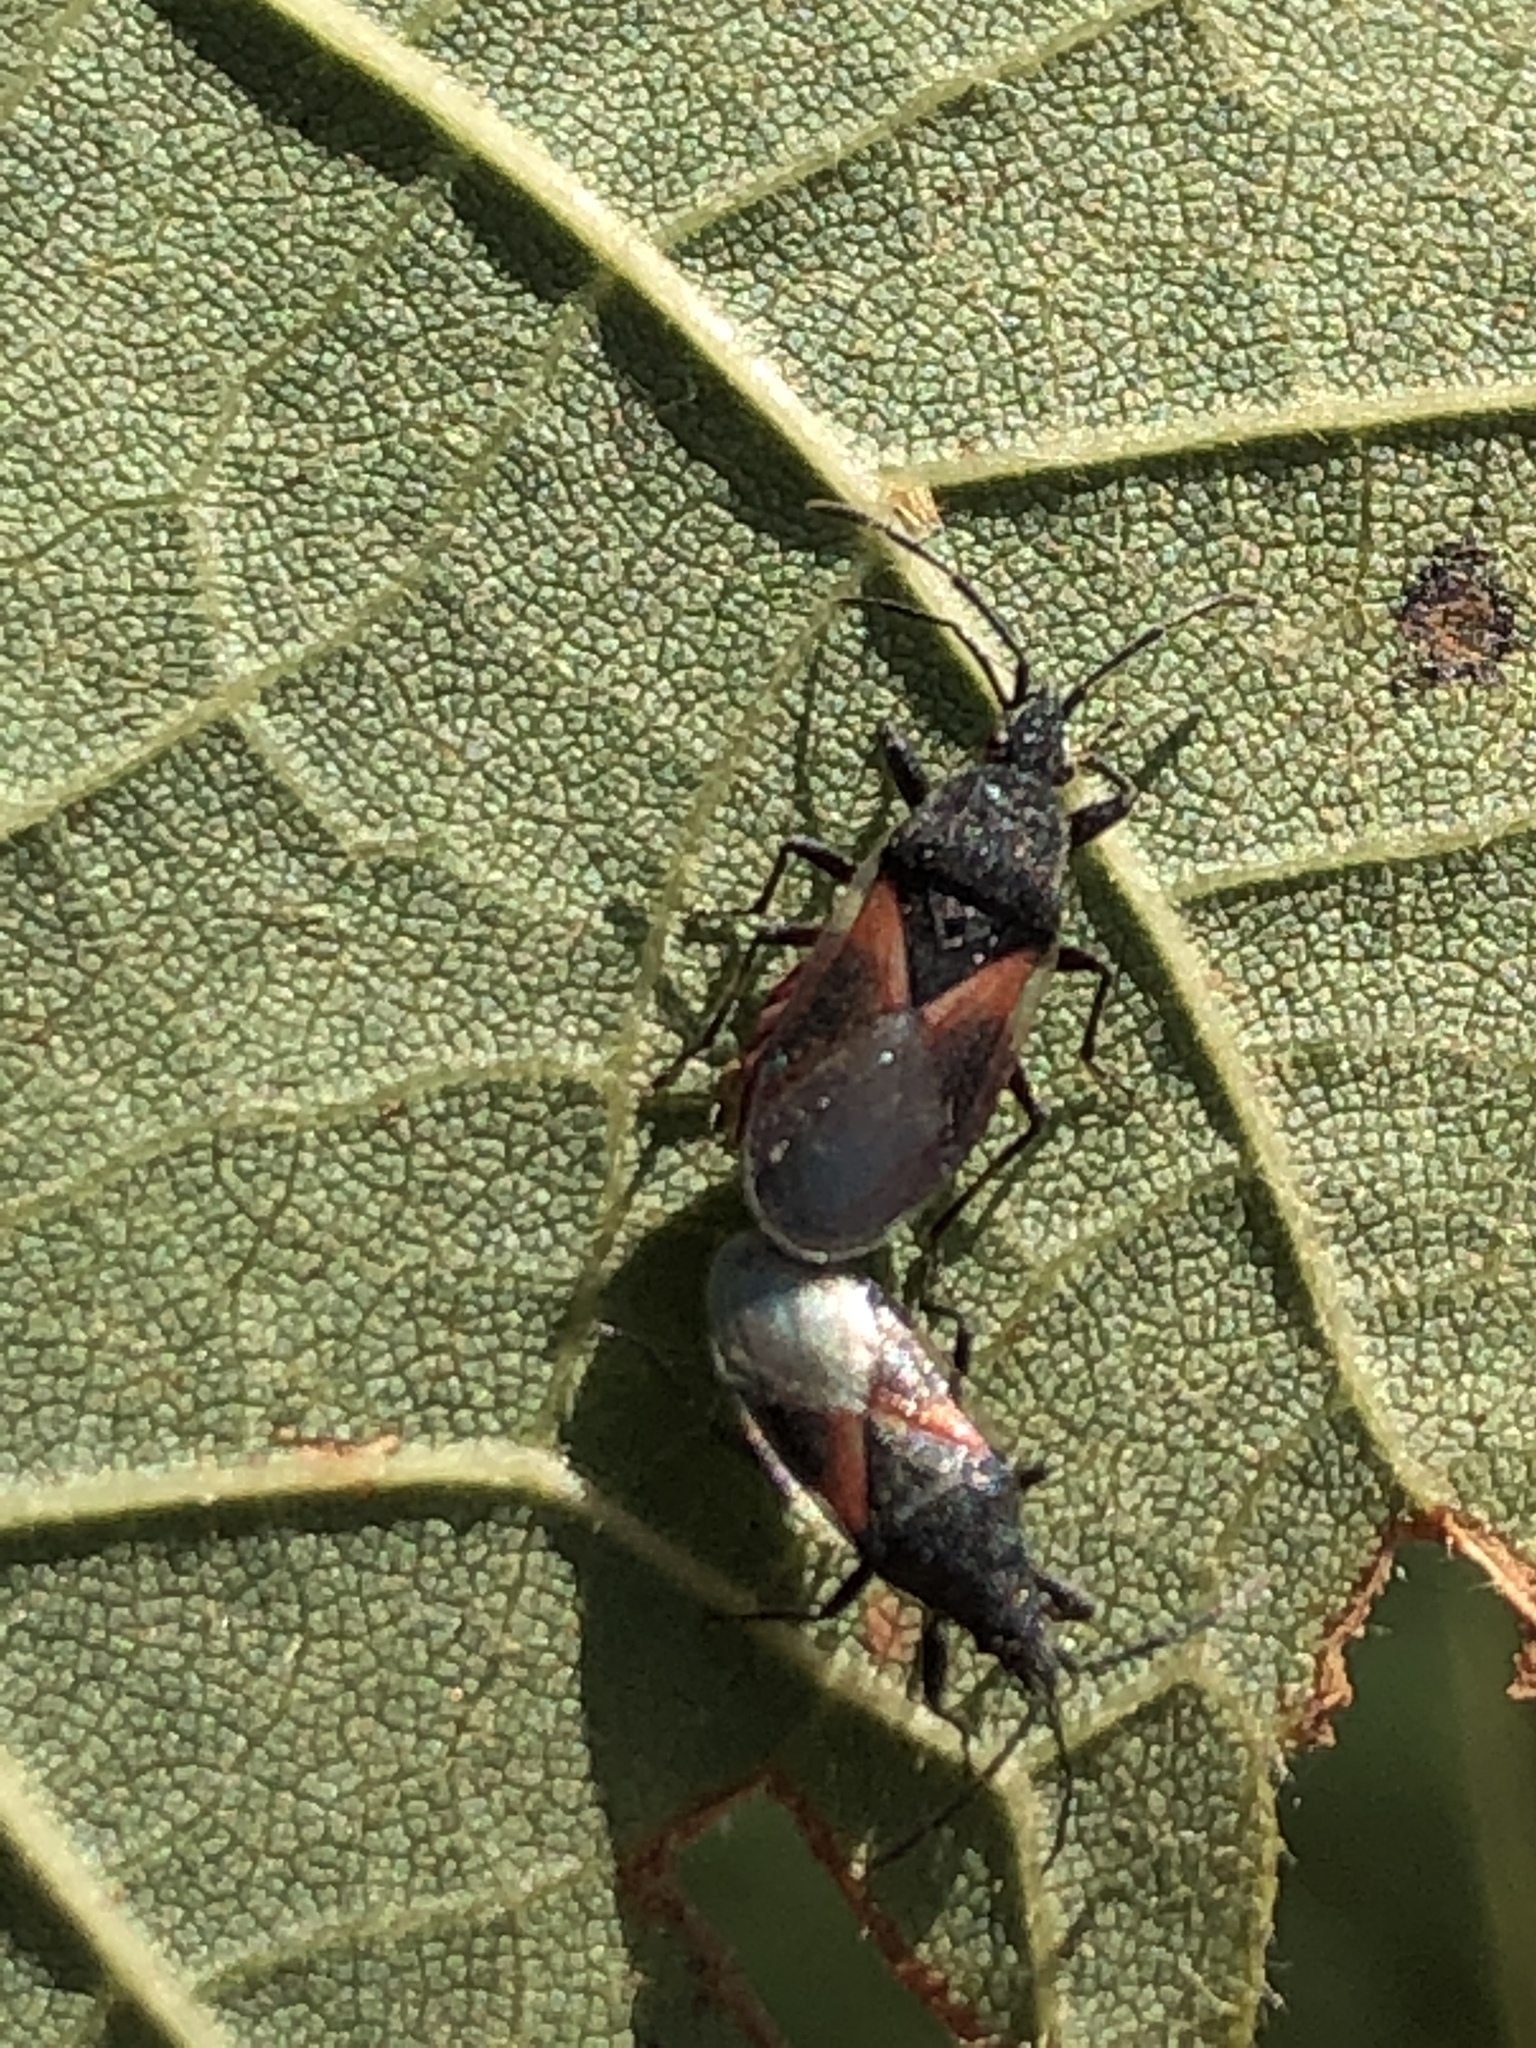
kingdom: Animalia
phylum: Arthropoda
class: Insecta
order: Hemiptera
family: Oxycarenidae
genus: Oxycarenus
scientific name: Oxycarenus lavaterae
